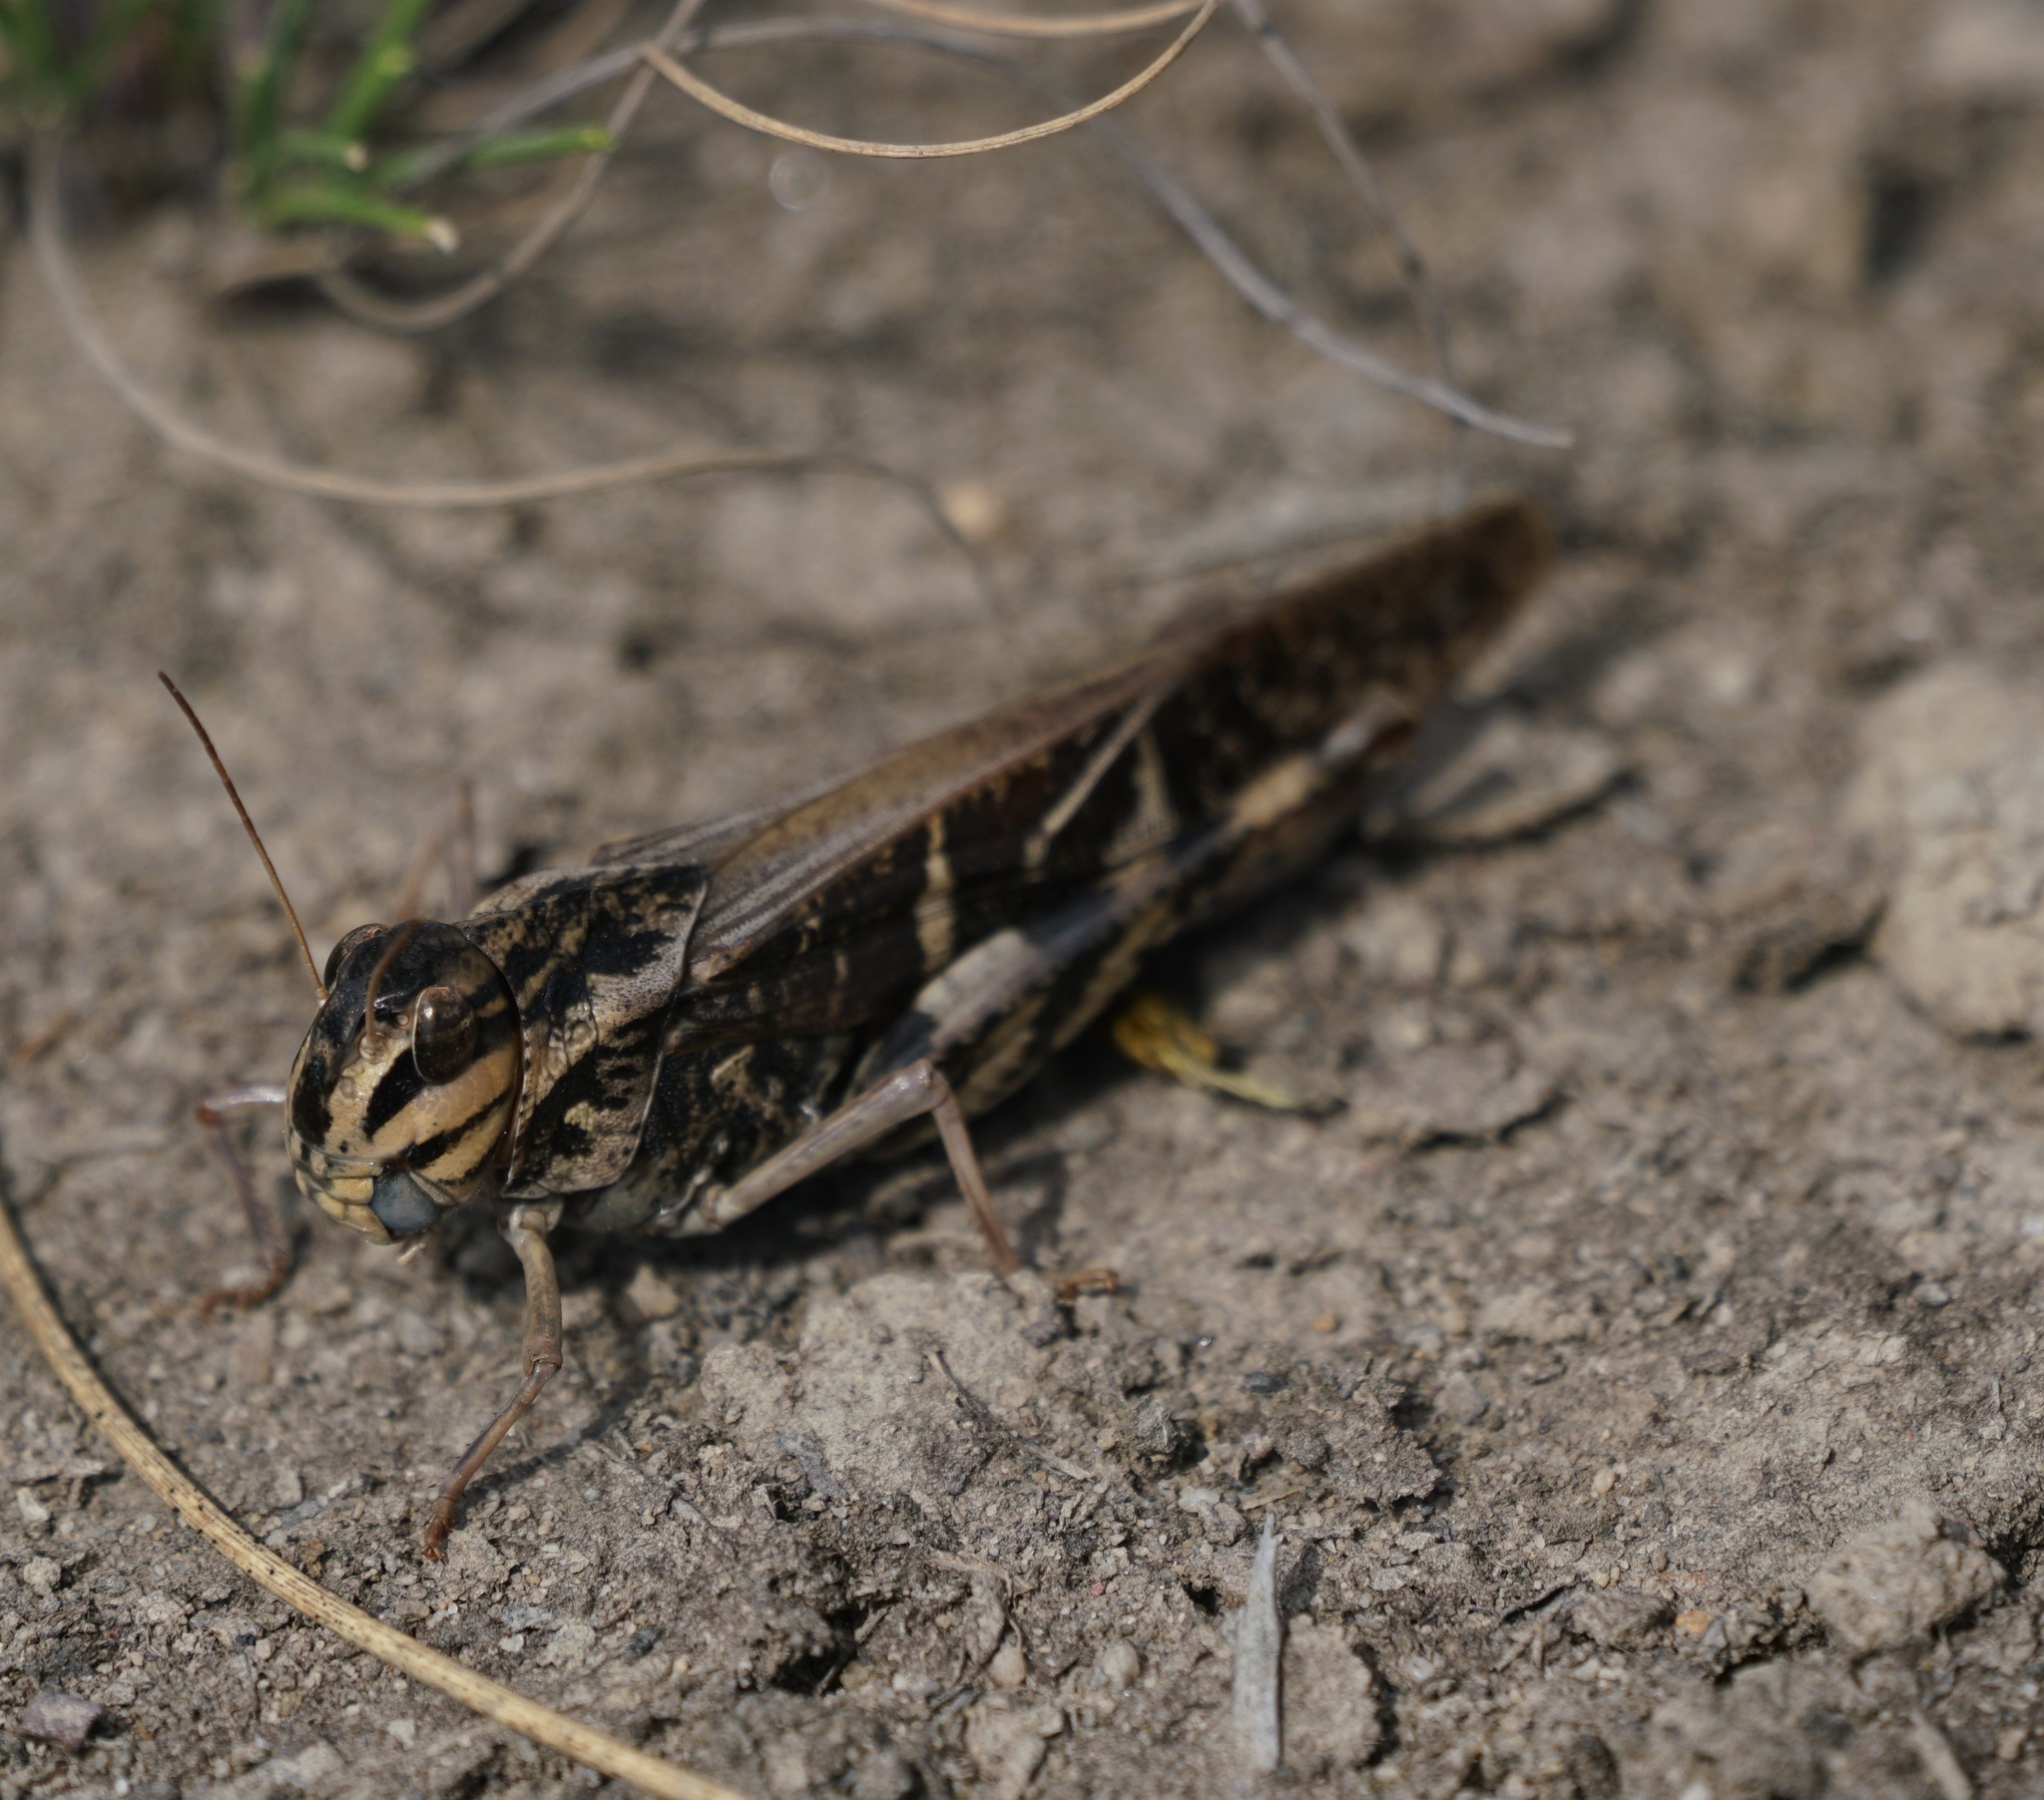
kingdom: Animalia
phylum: Arthropoda
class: Insecta
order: Orthoptera
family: Acrididae
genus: Gastrimargus
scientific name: Gastrimargus musicus
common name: Yellow-winged locust
